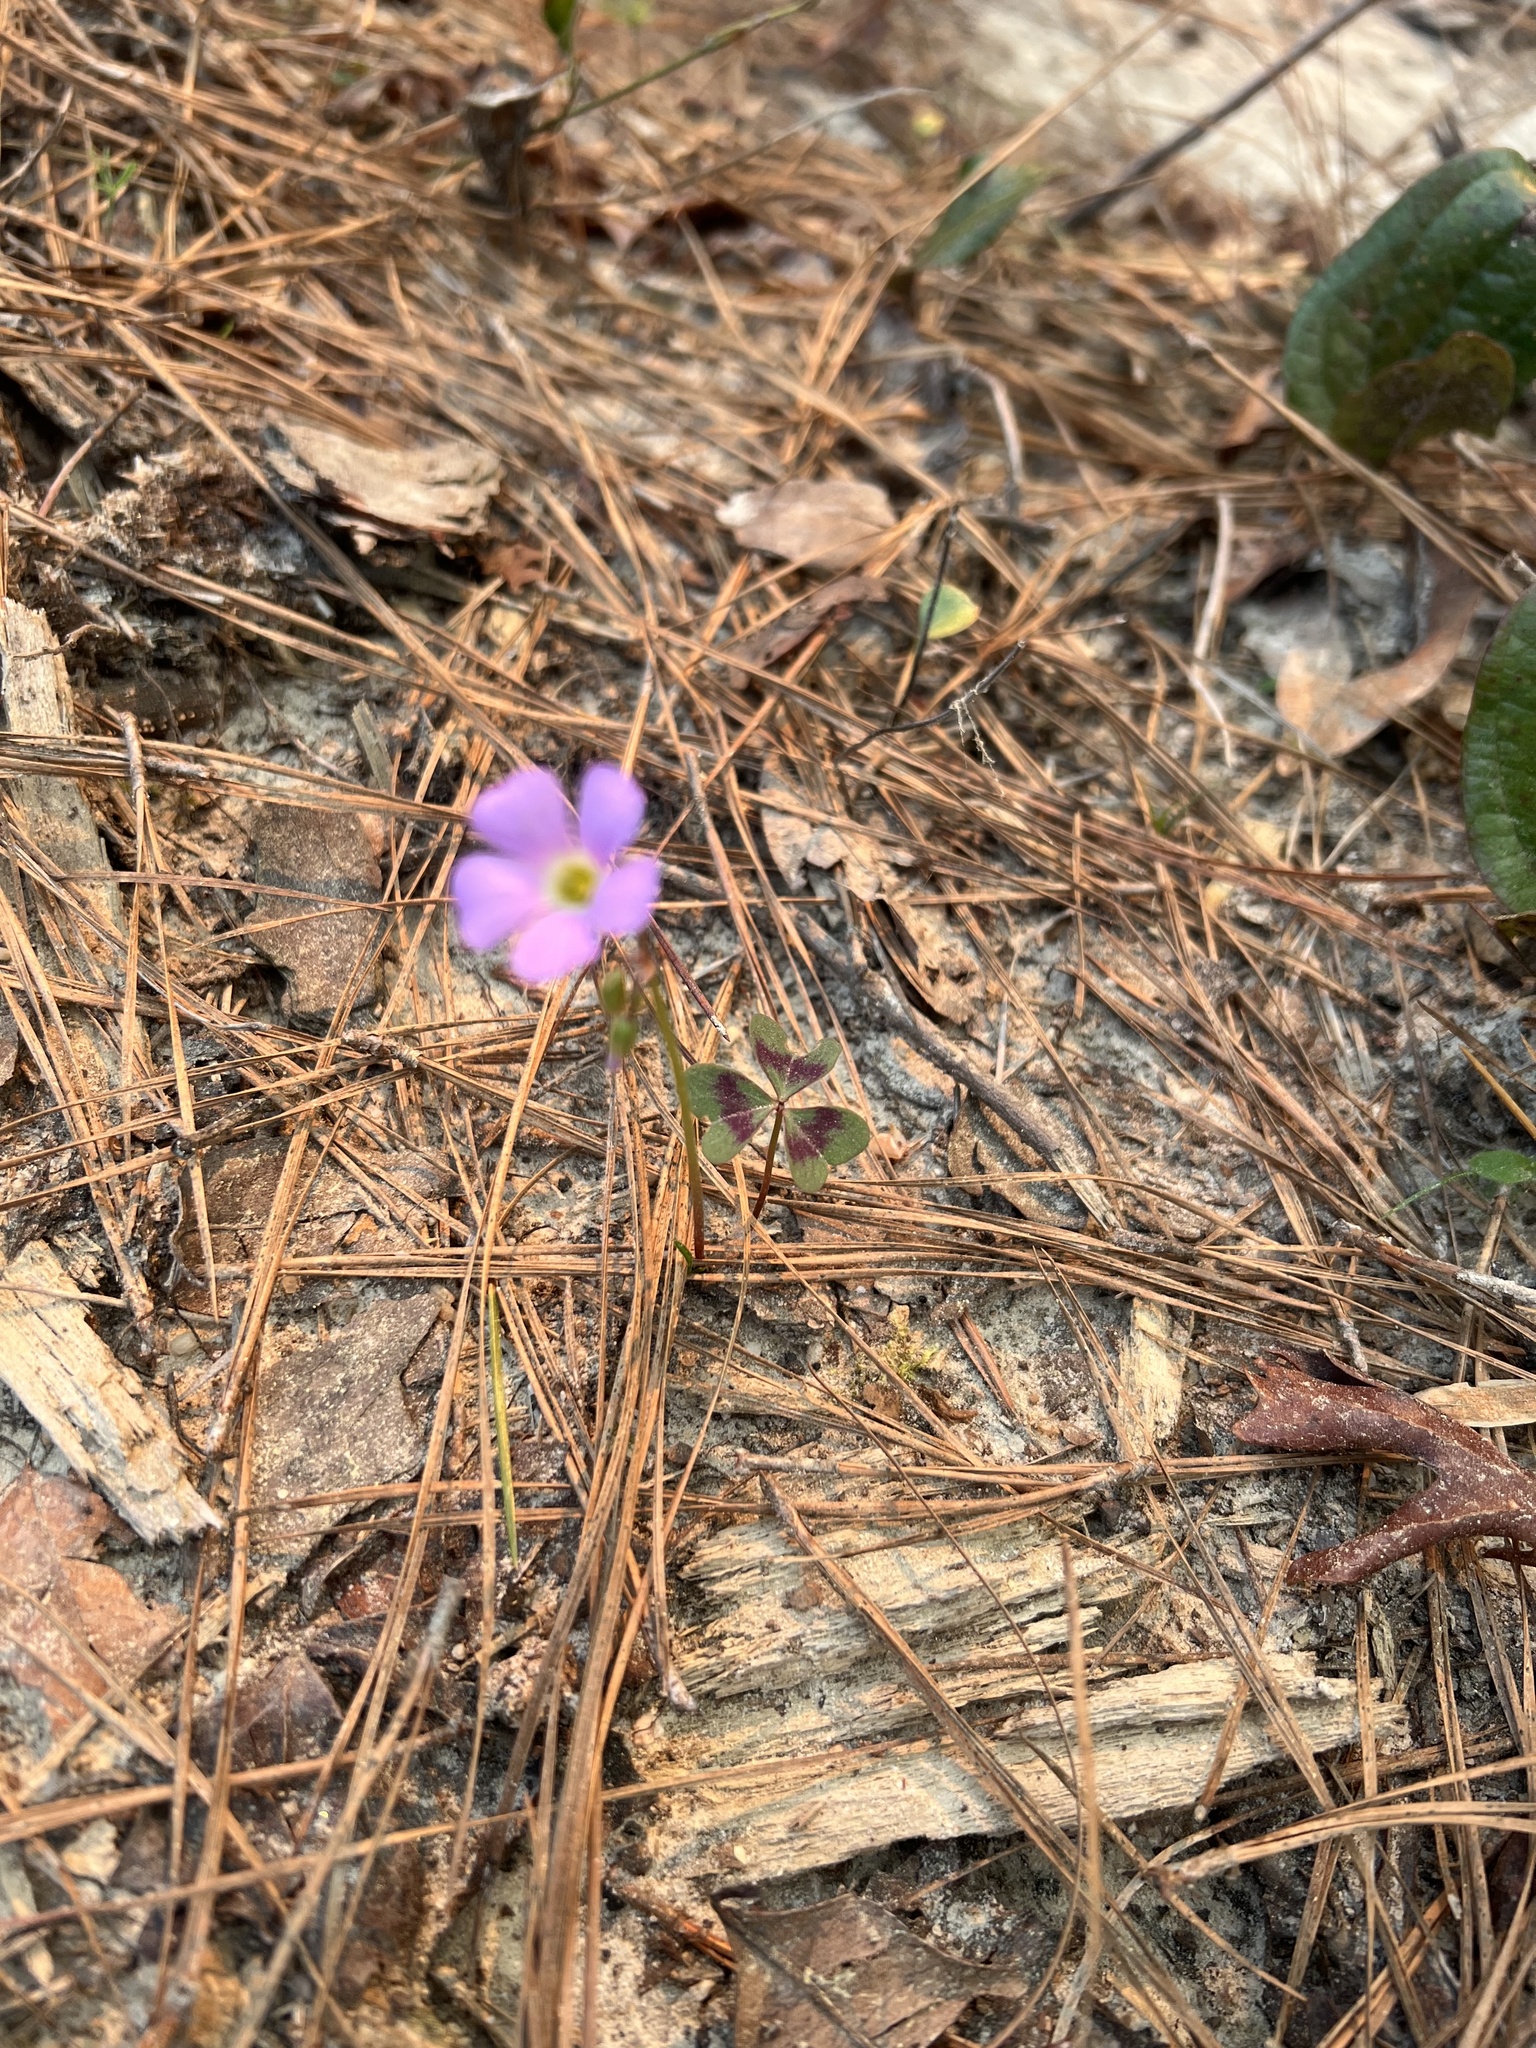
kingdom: Plantae
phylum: Tracheophyta
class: Magnoliopsida
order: Oxalidales
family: Oxalidaceae
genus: Oxalis
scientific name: Oxalis violacea
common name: Violet wood-sorrel
